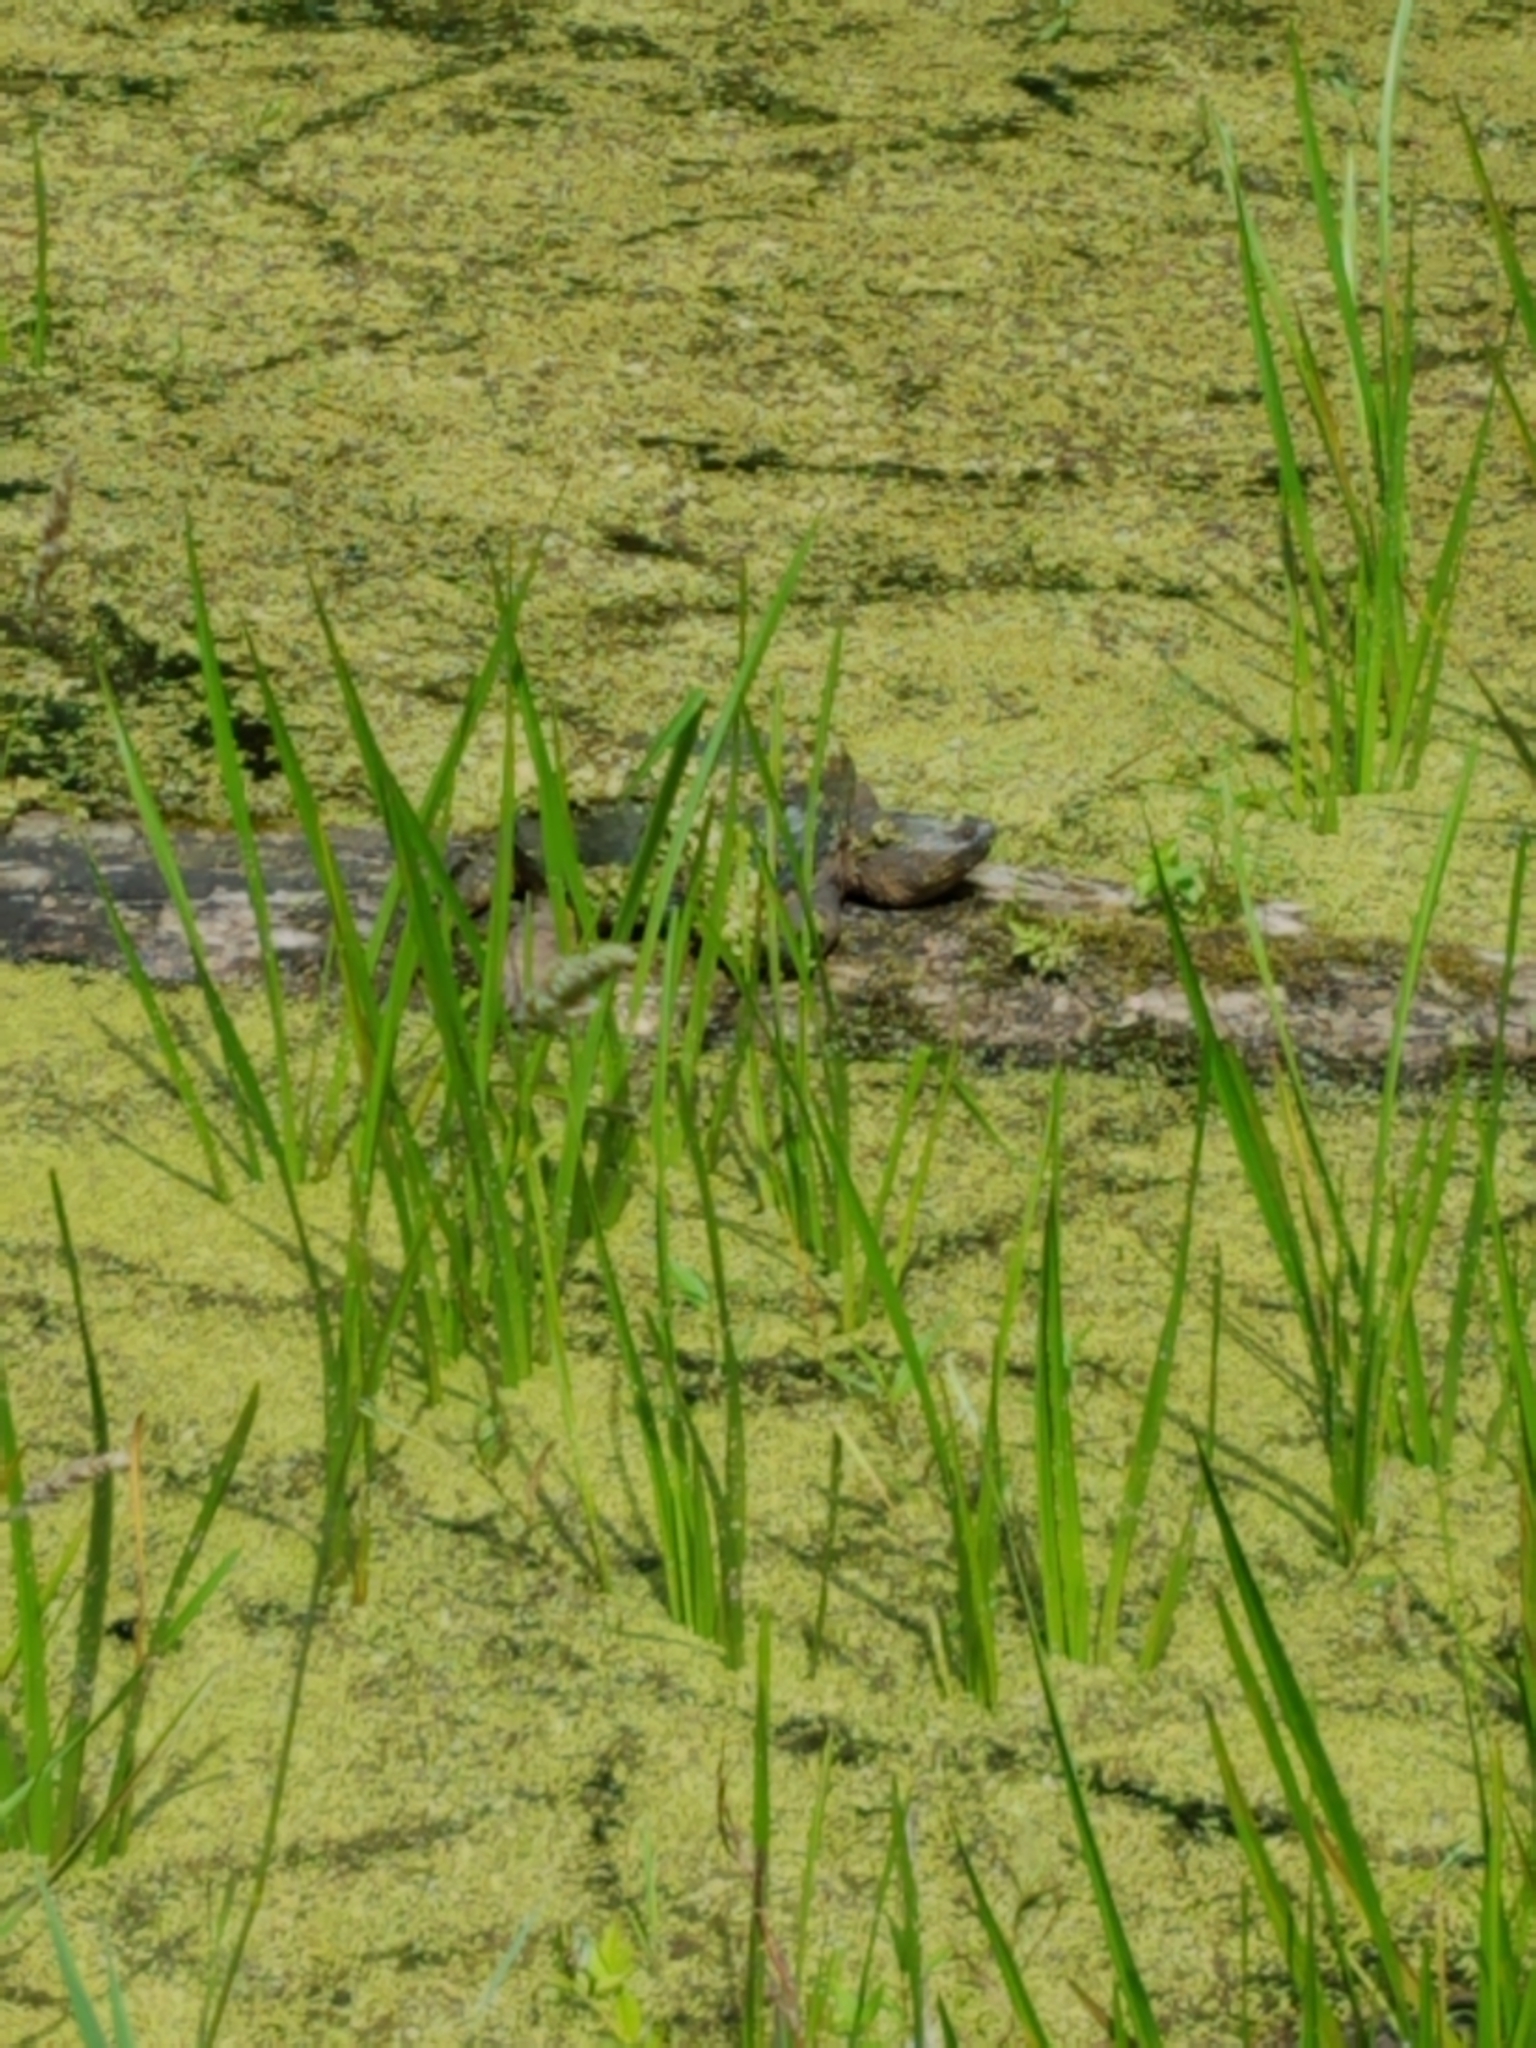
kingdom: Animalia
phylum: Chordata
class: Testudines
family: Chelydridae
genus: Chelydra
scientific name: Chelydra serpentina
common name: Common snapping turtle
